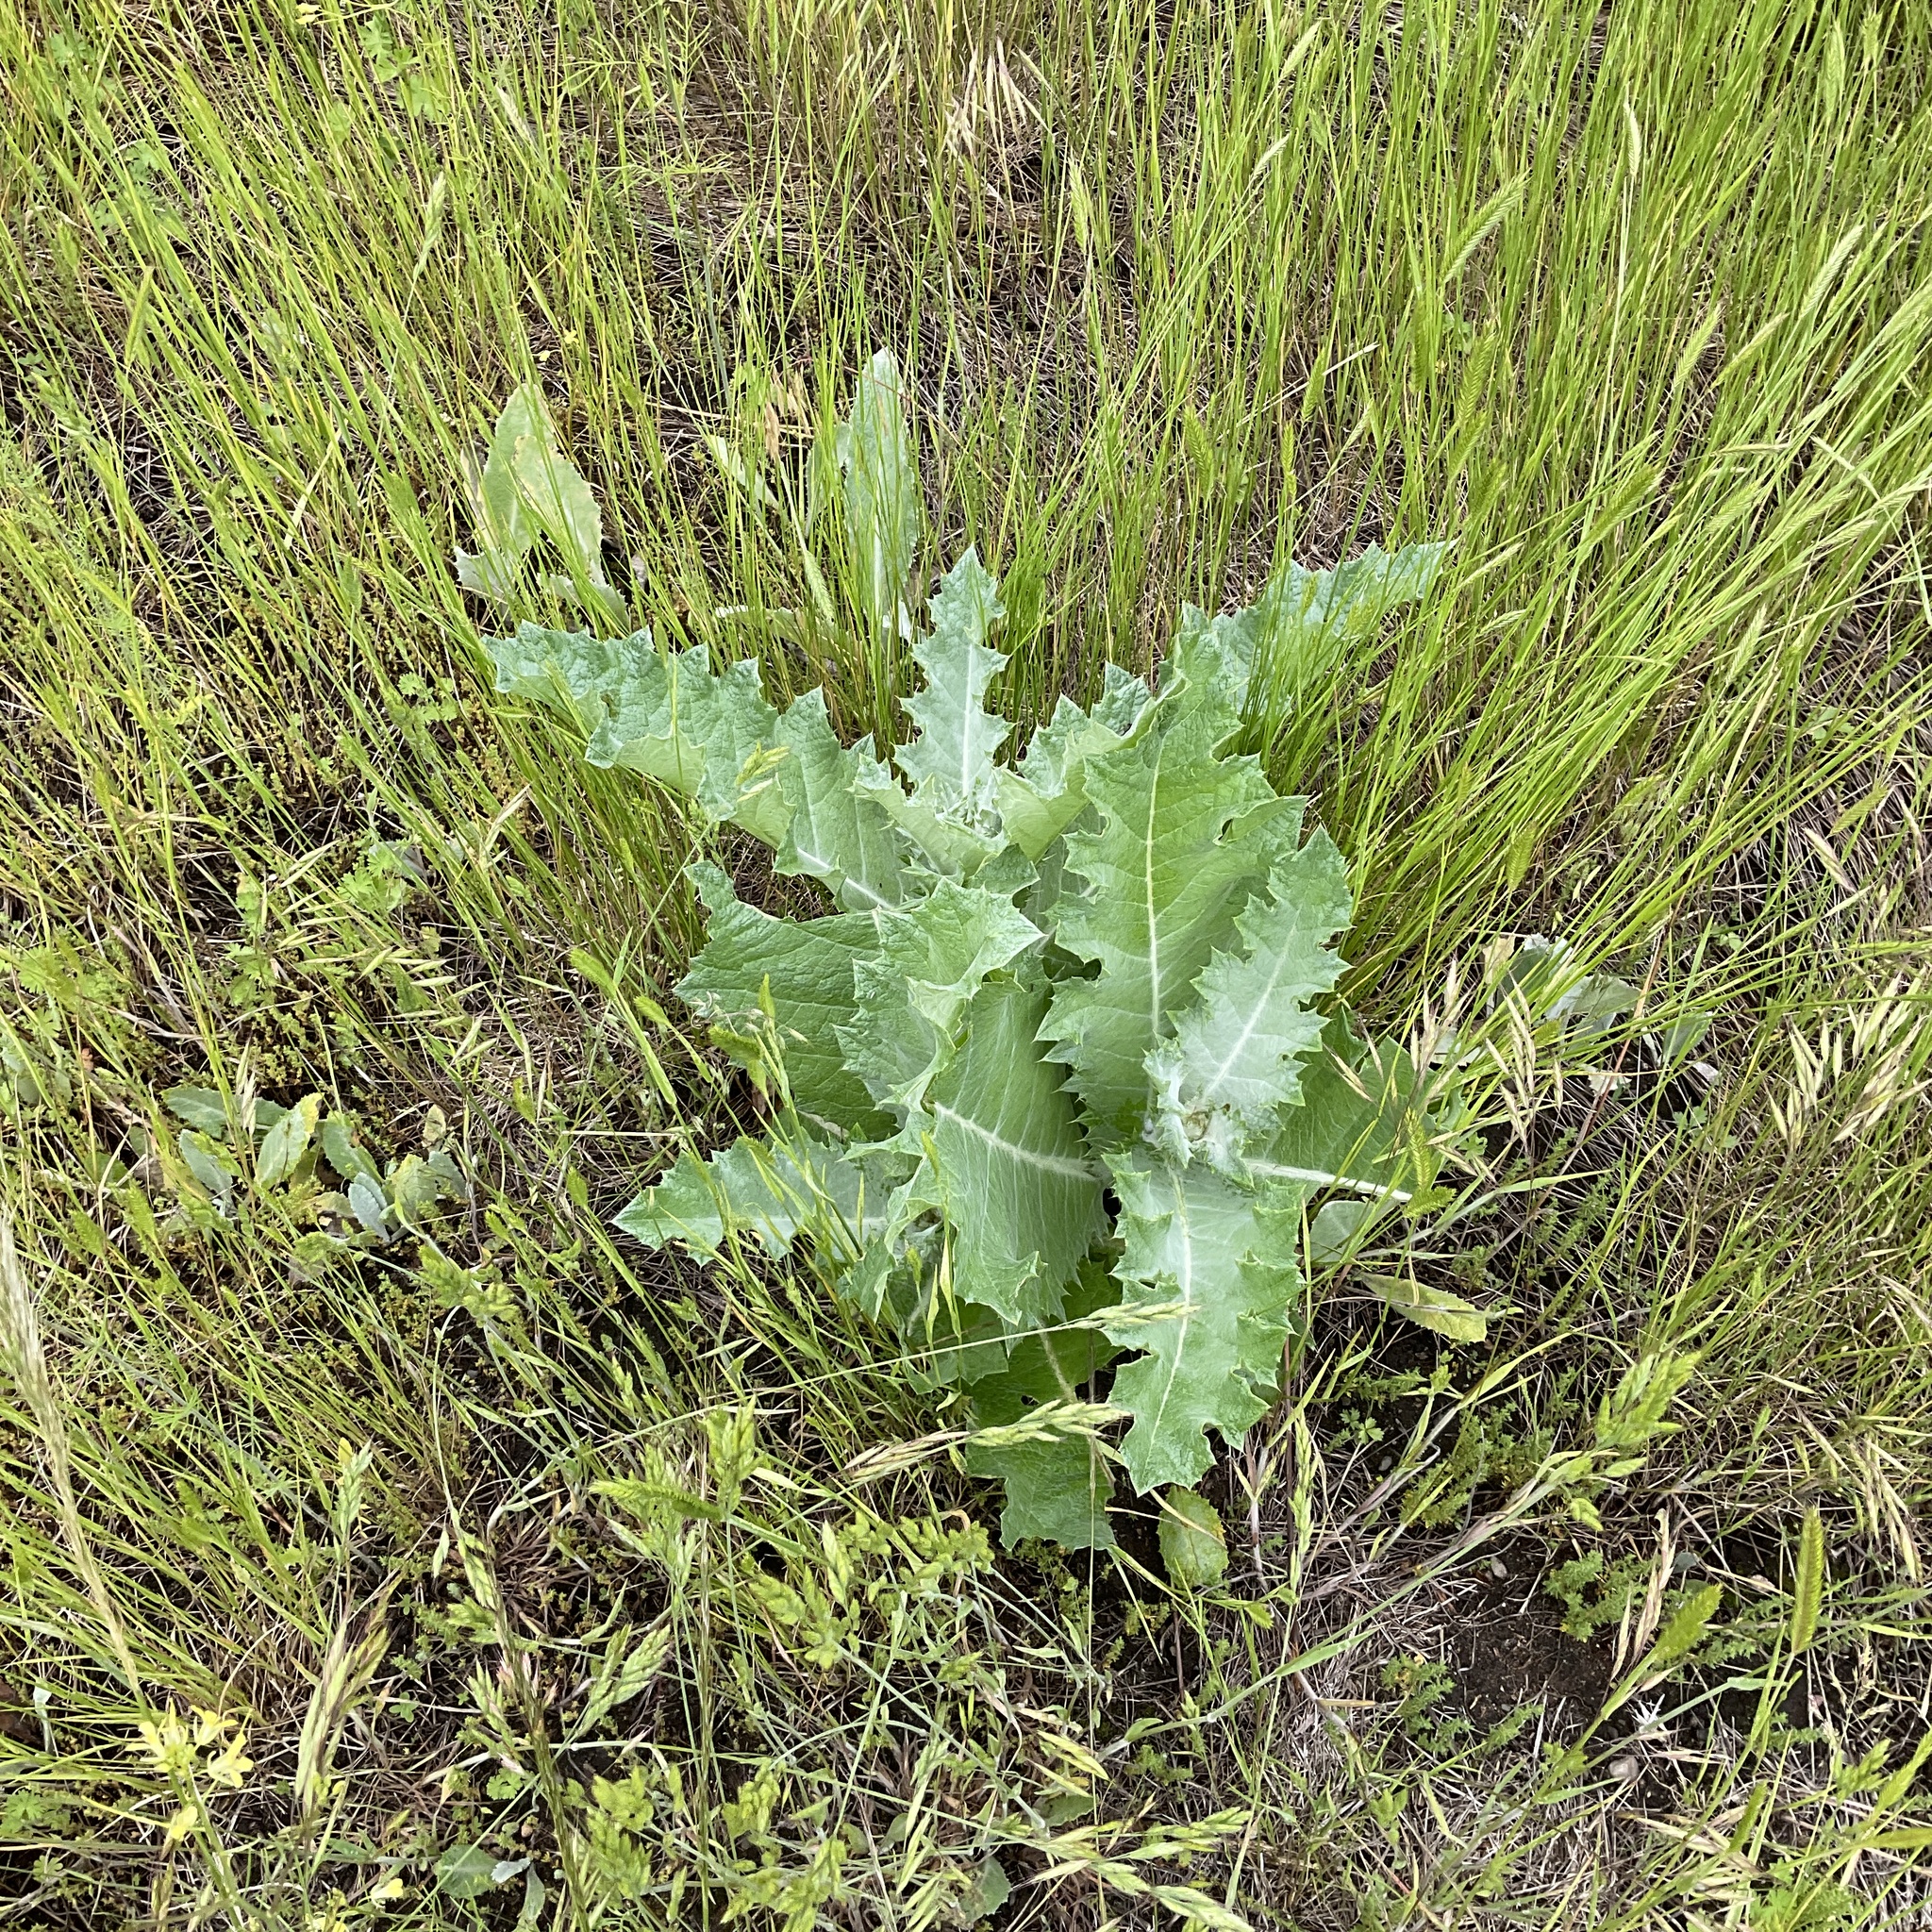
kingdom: Plantae
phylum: Tracheophyta
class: Magnoliopsida
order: Asterales
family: Asteraceae
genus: Onopordum
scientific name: Onopordum acanthium
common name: Scotch thistle
